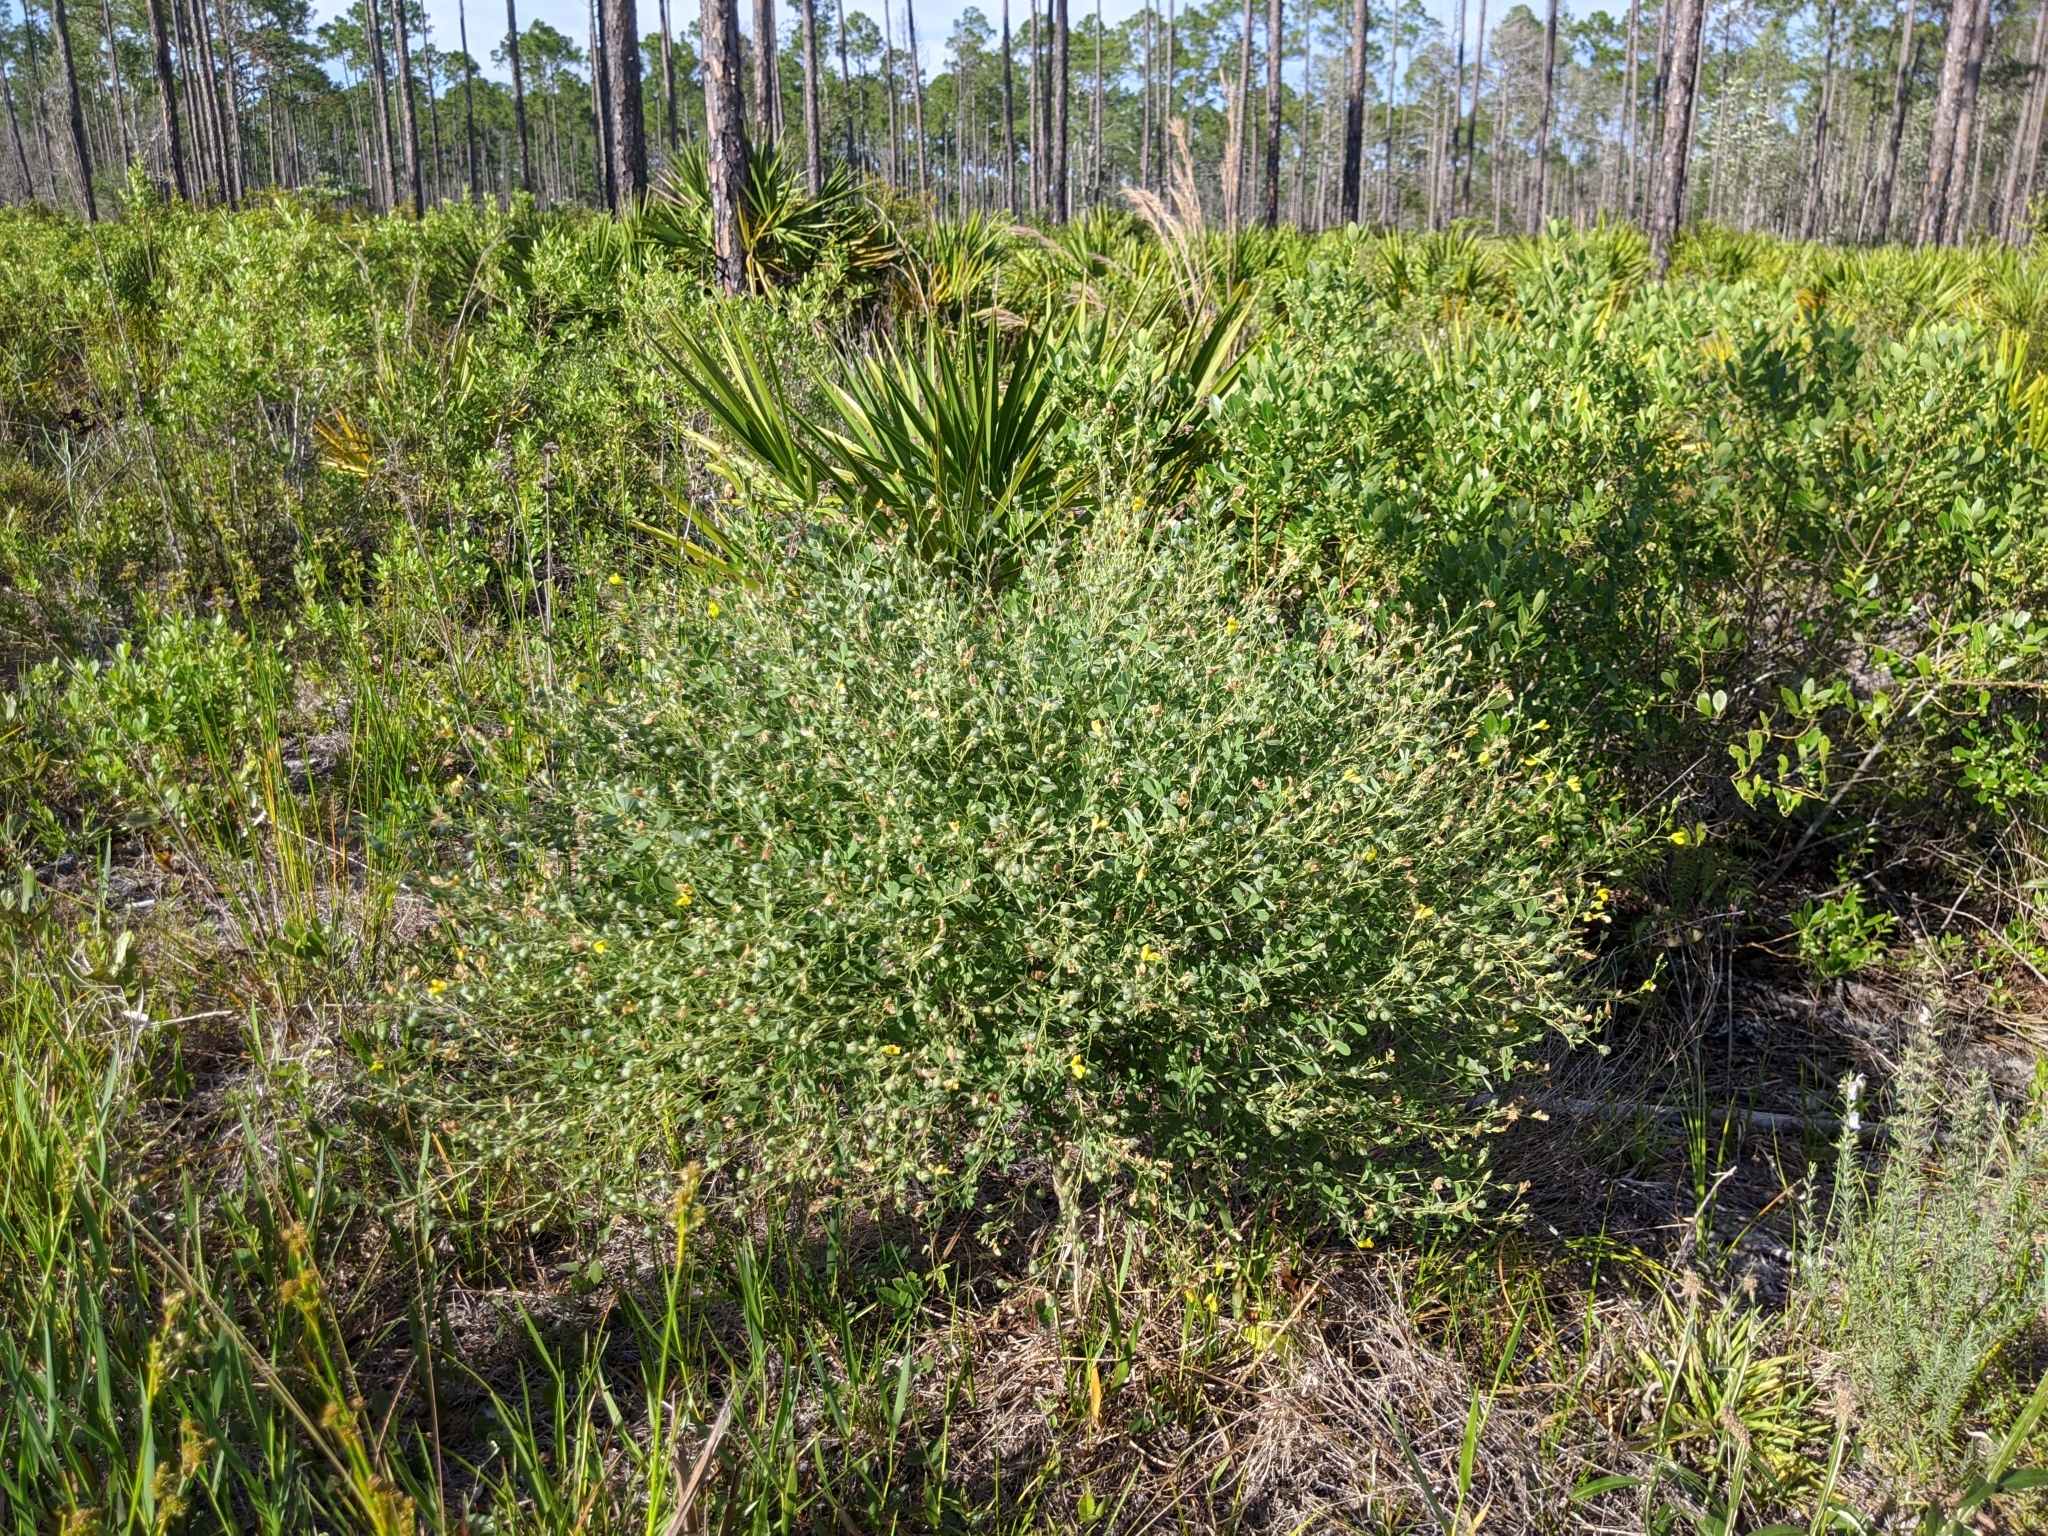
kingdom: Plantae
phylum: Tracheophyta
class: Magnoliopsida
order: Fabales
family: Fabaceae
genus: Baptisia
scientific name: Baptisia lecontei
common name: Pineland wild indigo
